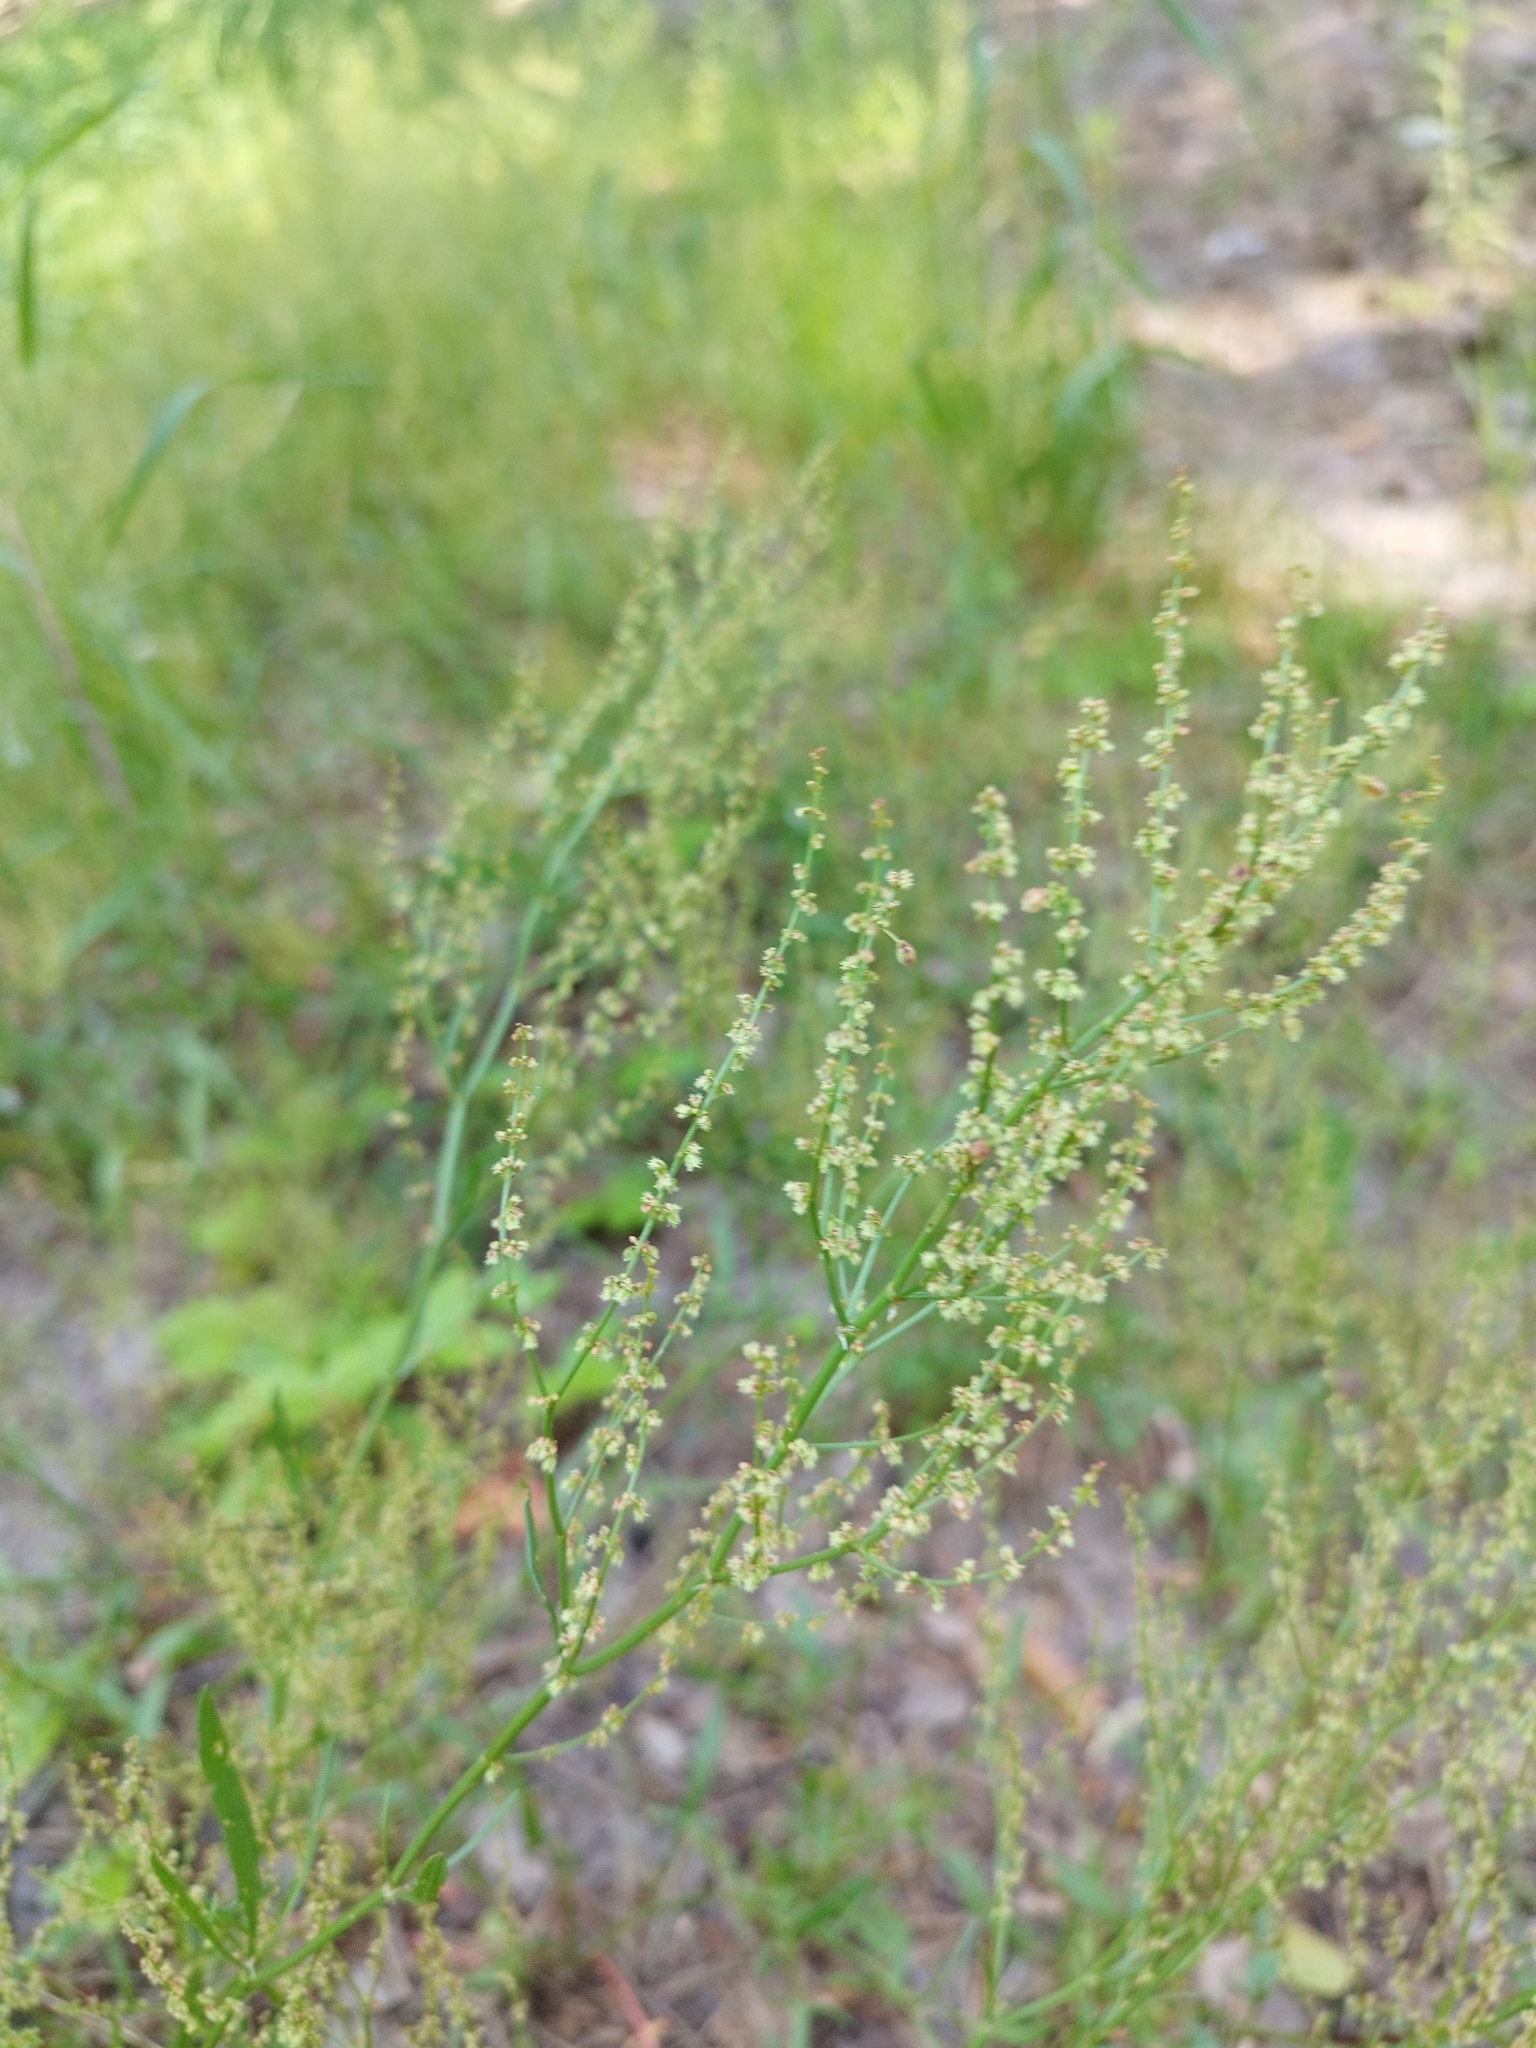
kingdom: Plantae
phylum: Tracheophyta
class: Magnoliopsida
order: Caryophyllales
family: Polygonaceae
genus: Rumex
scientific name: Rumex acetosella
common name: Common sheep sorrel
